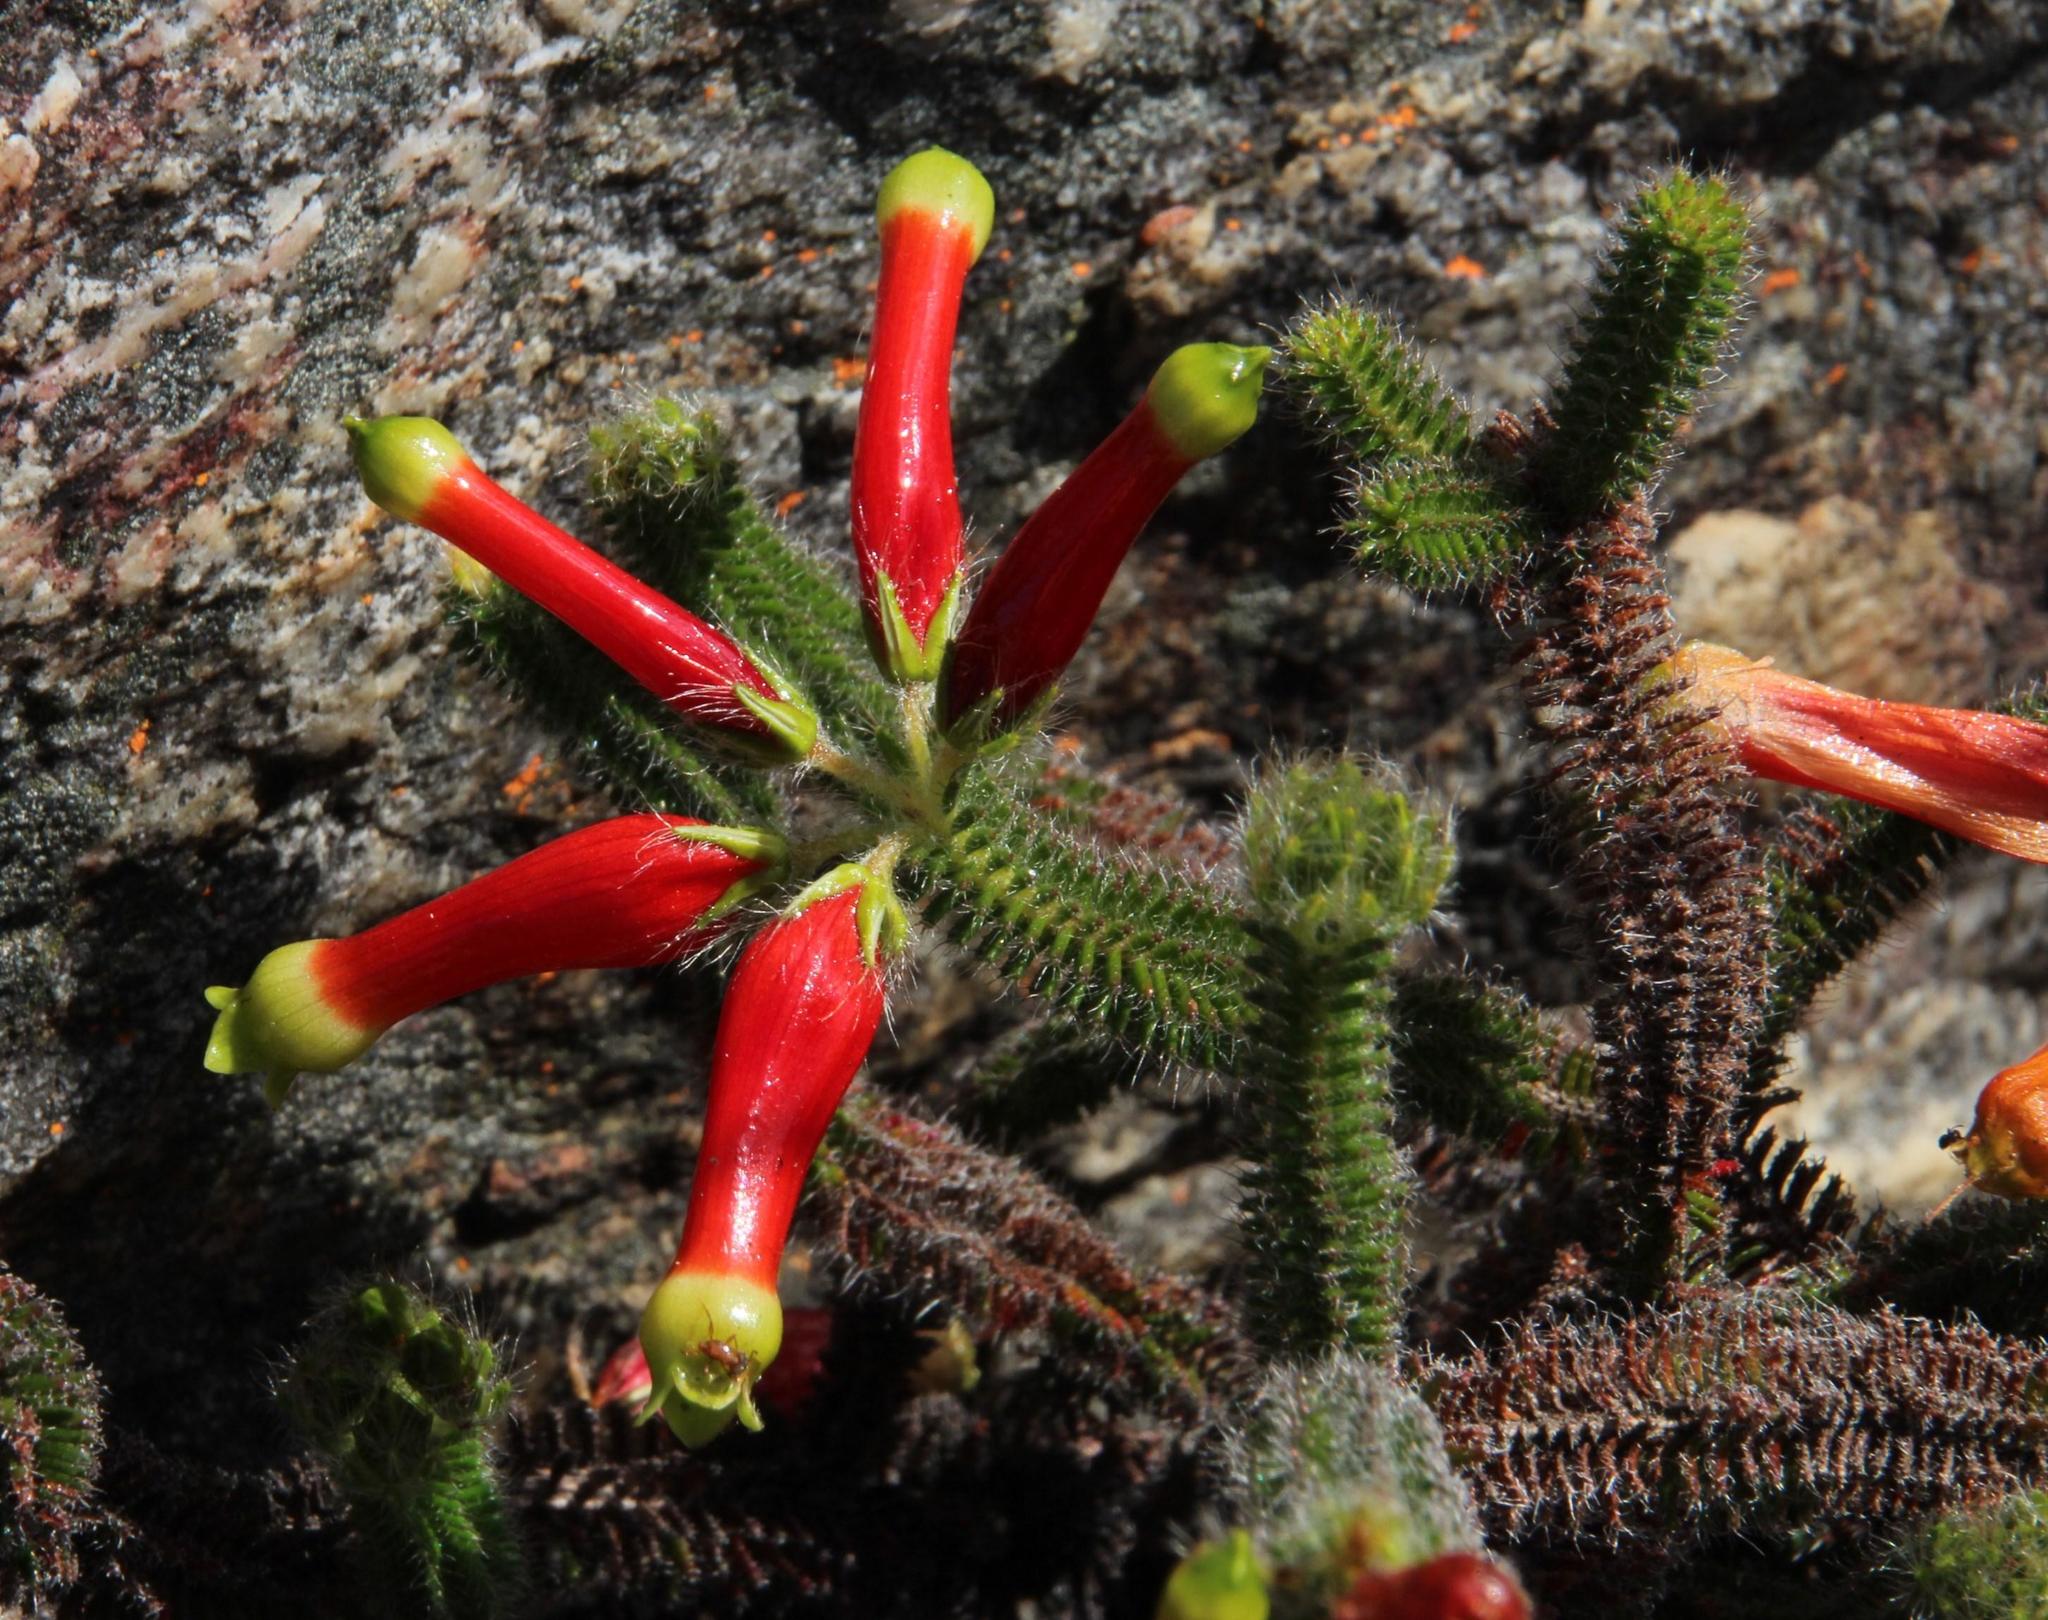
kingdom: Plantae
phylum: Tracheophyta
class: Magnoliopsida
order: Ericales
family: Ericaceae
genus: Erica
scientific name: Erica massonii
